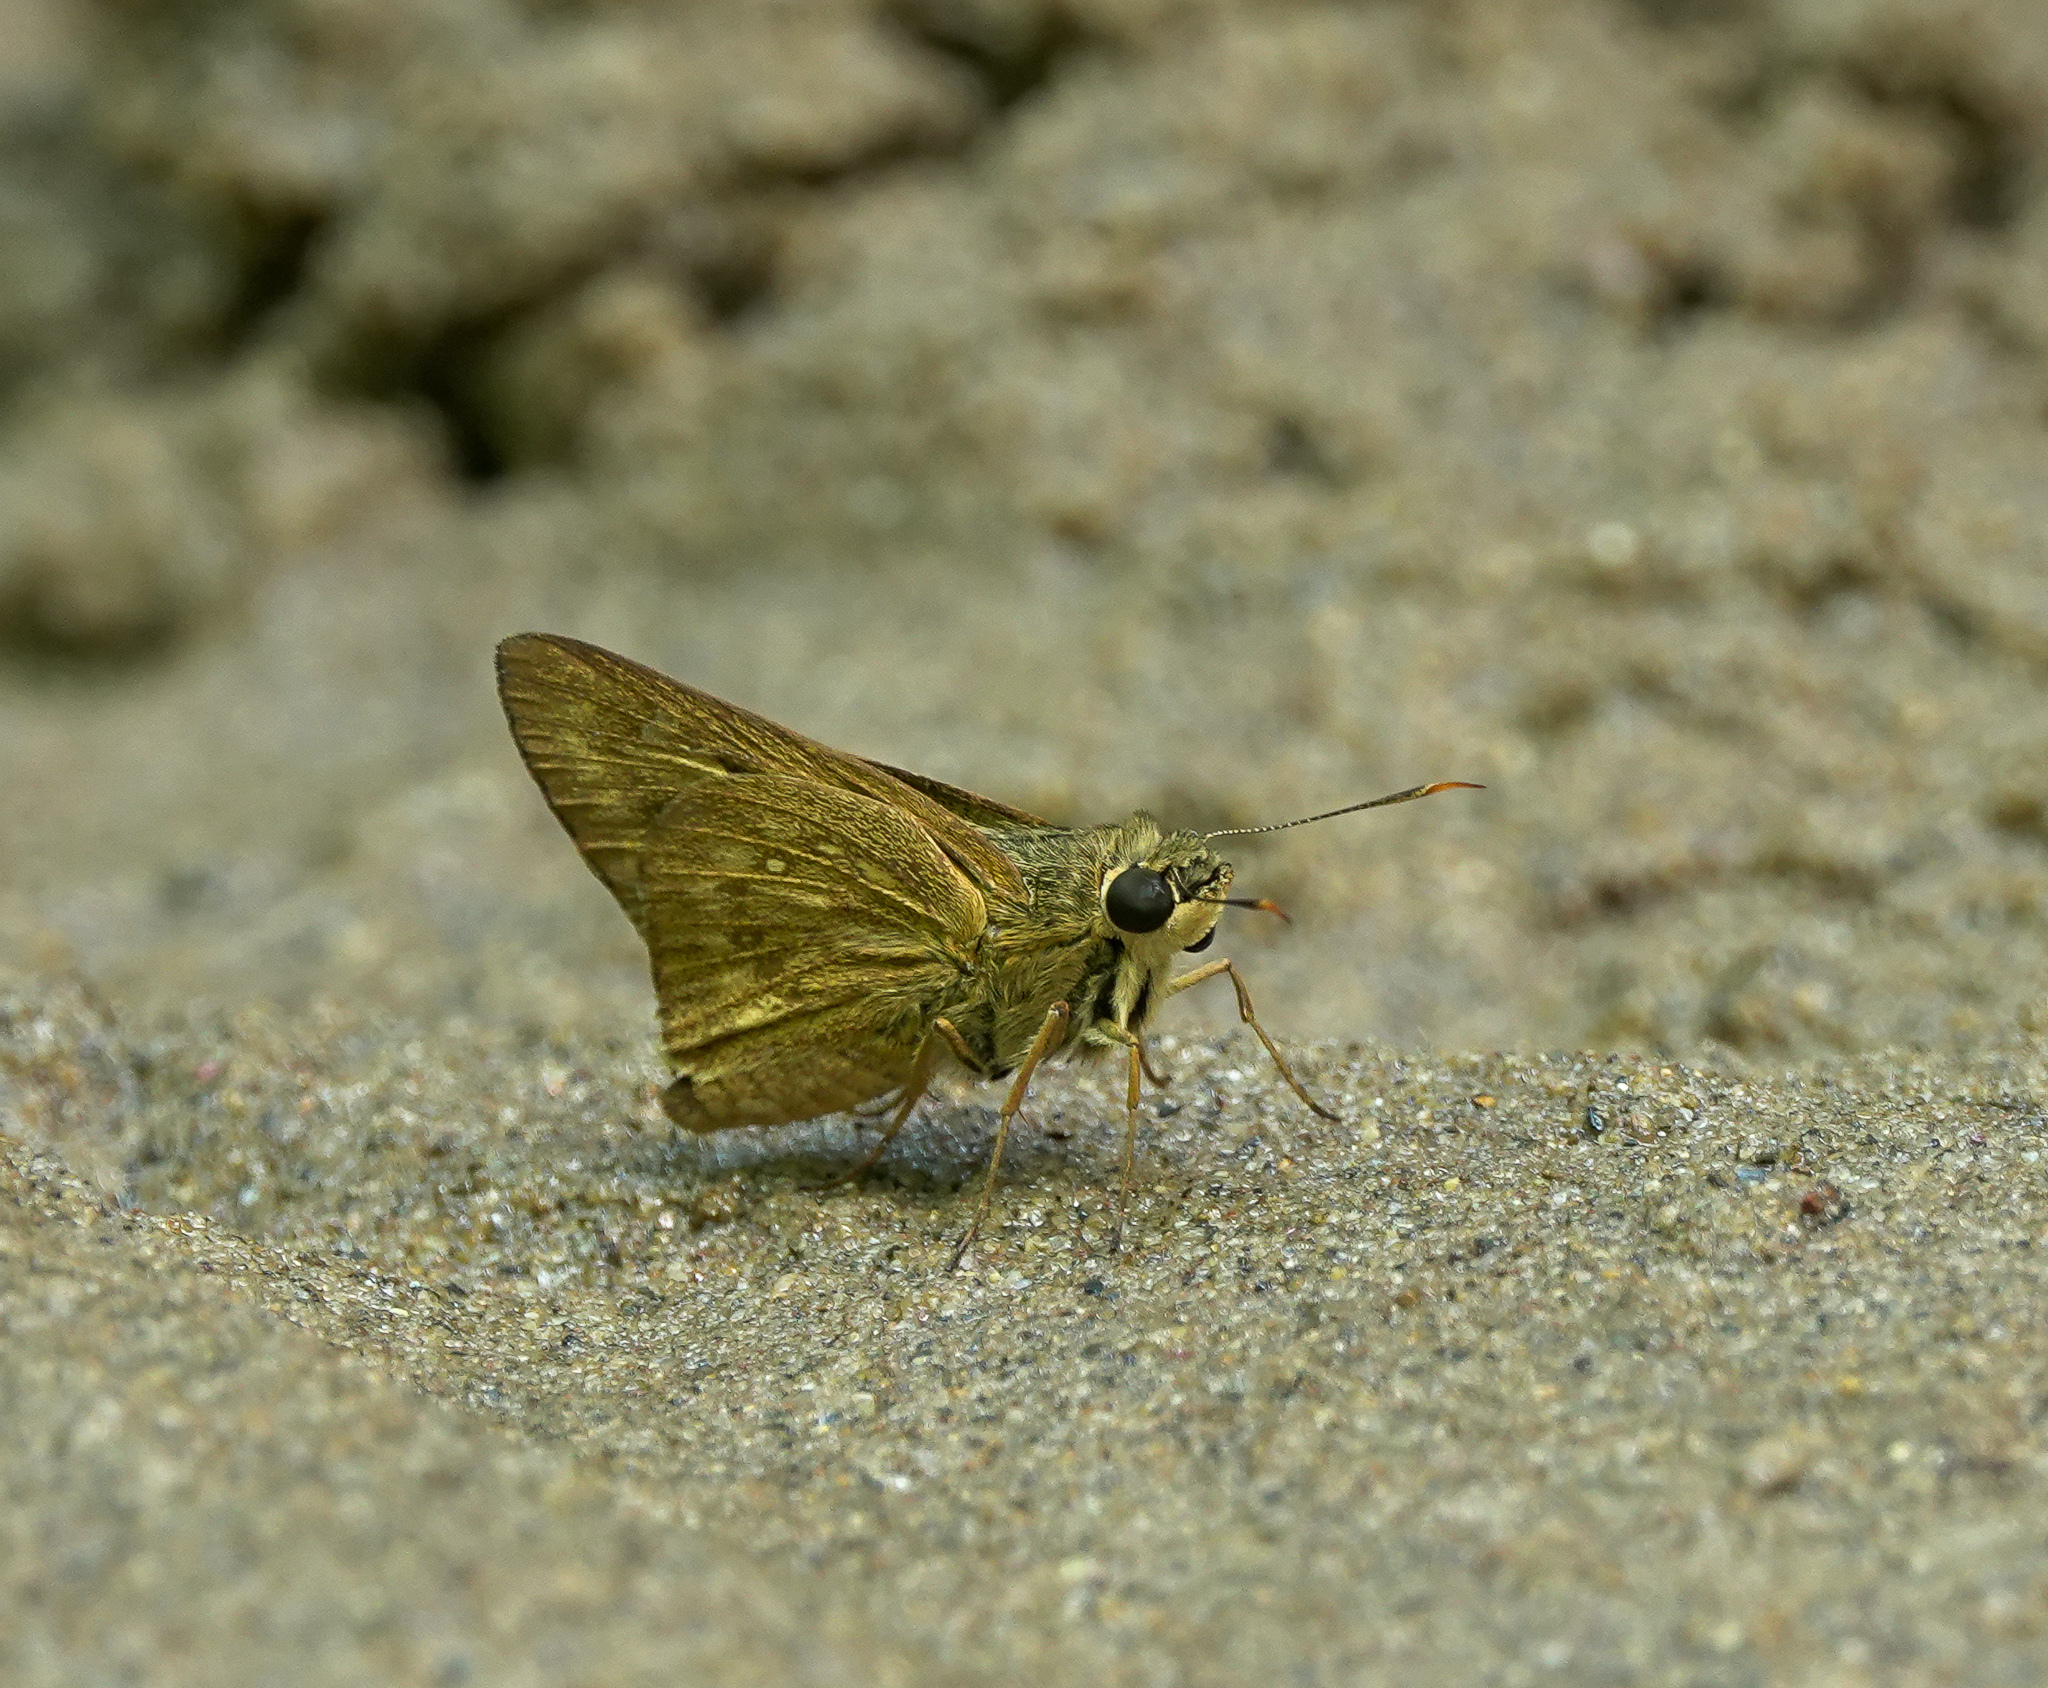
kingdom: Animalia
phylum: Arthropoda
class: Insecta
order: Lepidoptera
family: Hesperiidae
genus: Pithauria
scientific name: Pithauria stramineipennis
